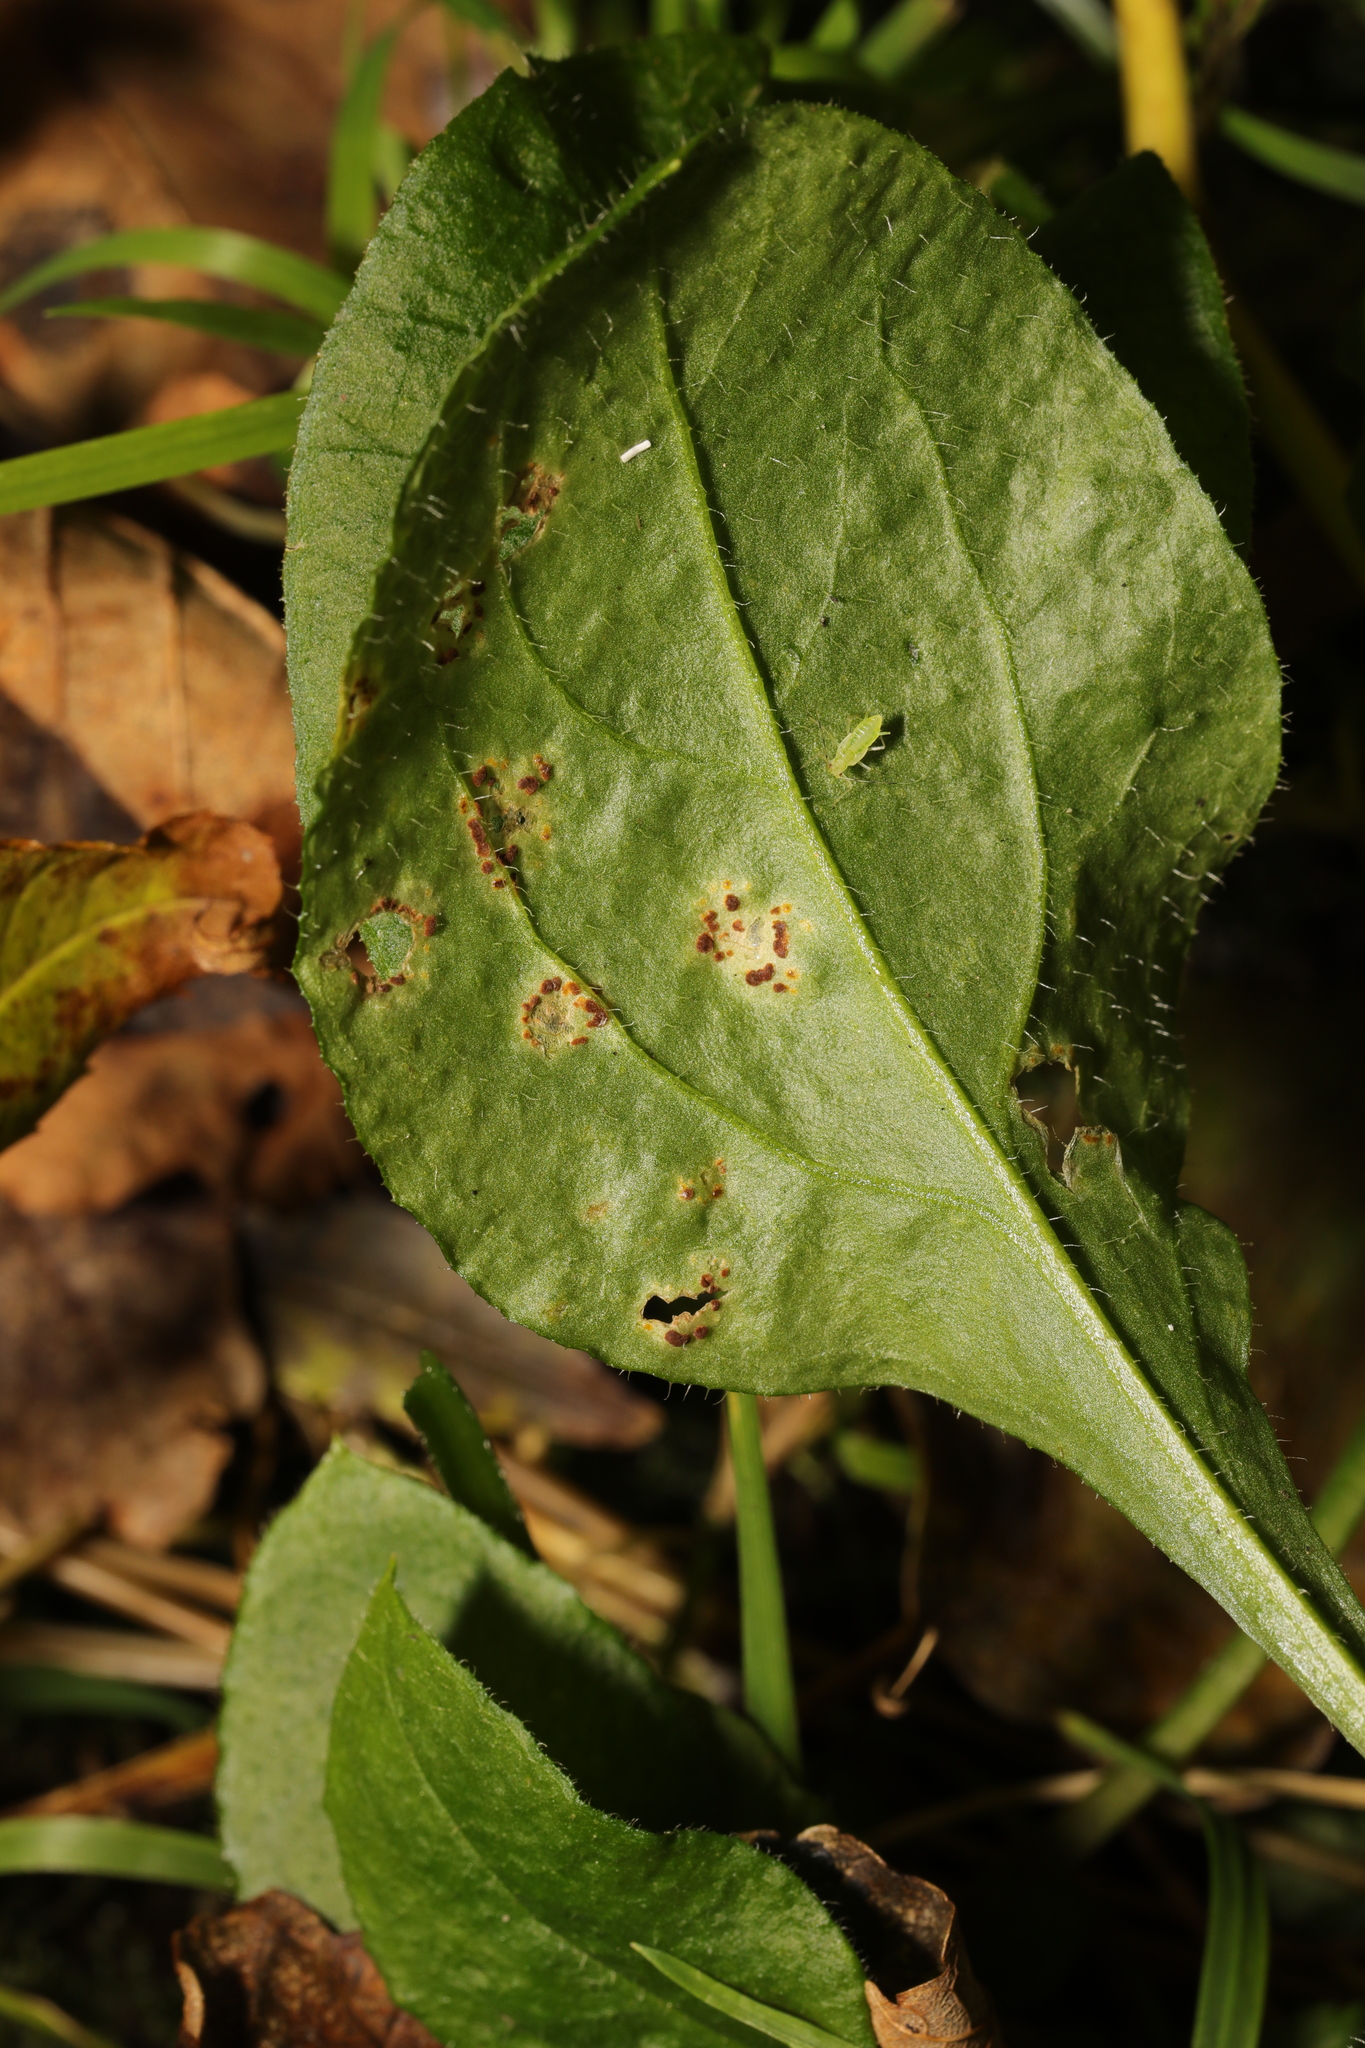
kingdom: Fungi
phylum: Basidiomycota
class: Pucciniomycetes
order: Pucciniales
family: Pucciniaceae
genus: Puccinia
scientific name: Puccinia arenariae
